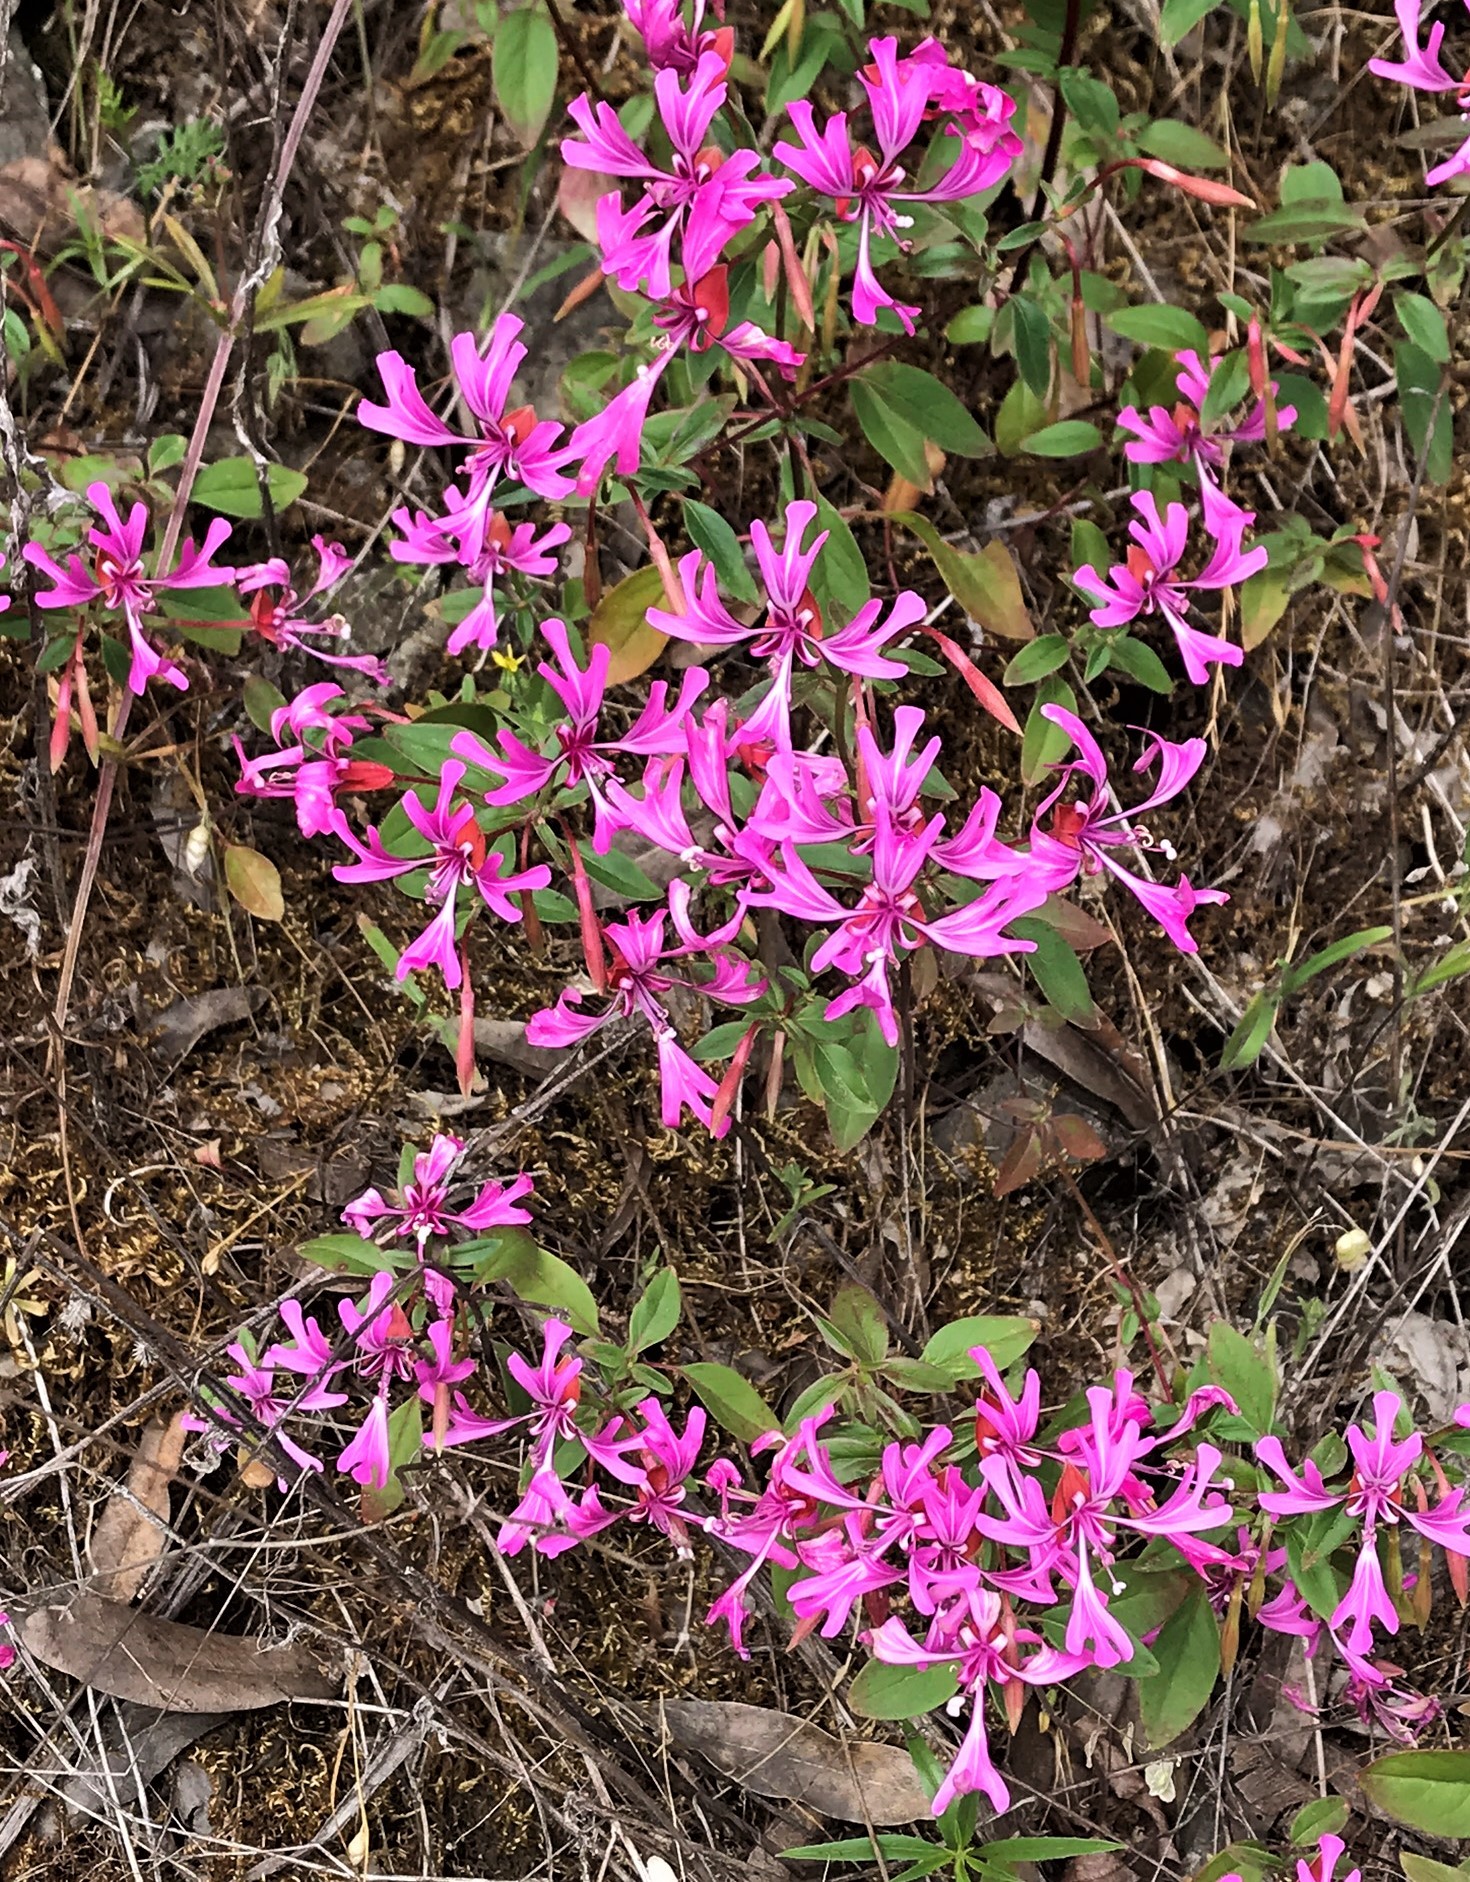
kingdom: Plantae
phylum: Tracheophyta
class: Magnoliopsida
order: Myrtales
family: Onagraceae
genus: Clarkia
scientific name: Clarkia concinna
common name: Red-ribbons
